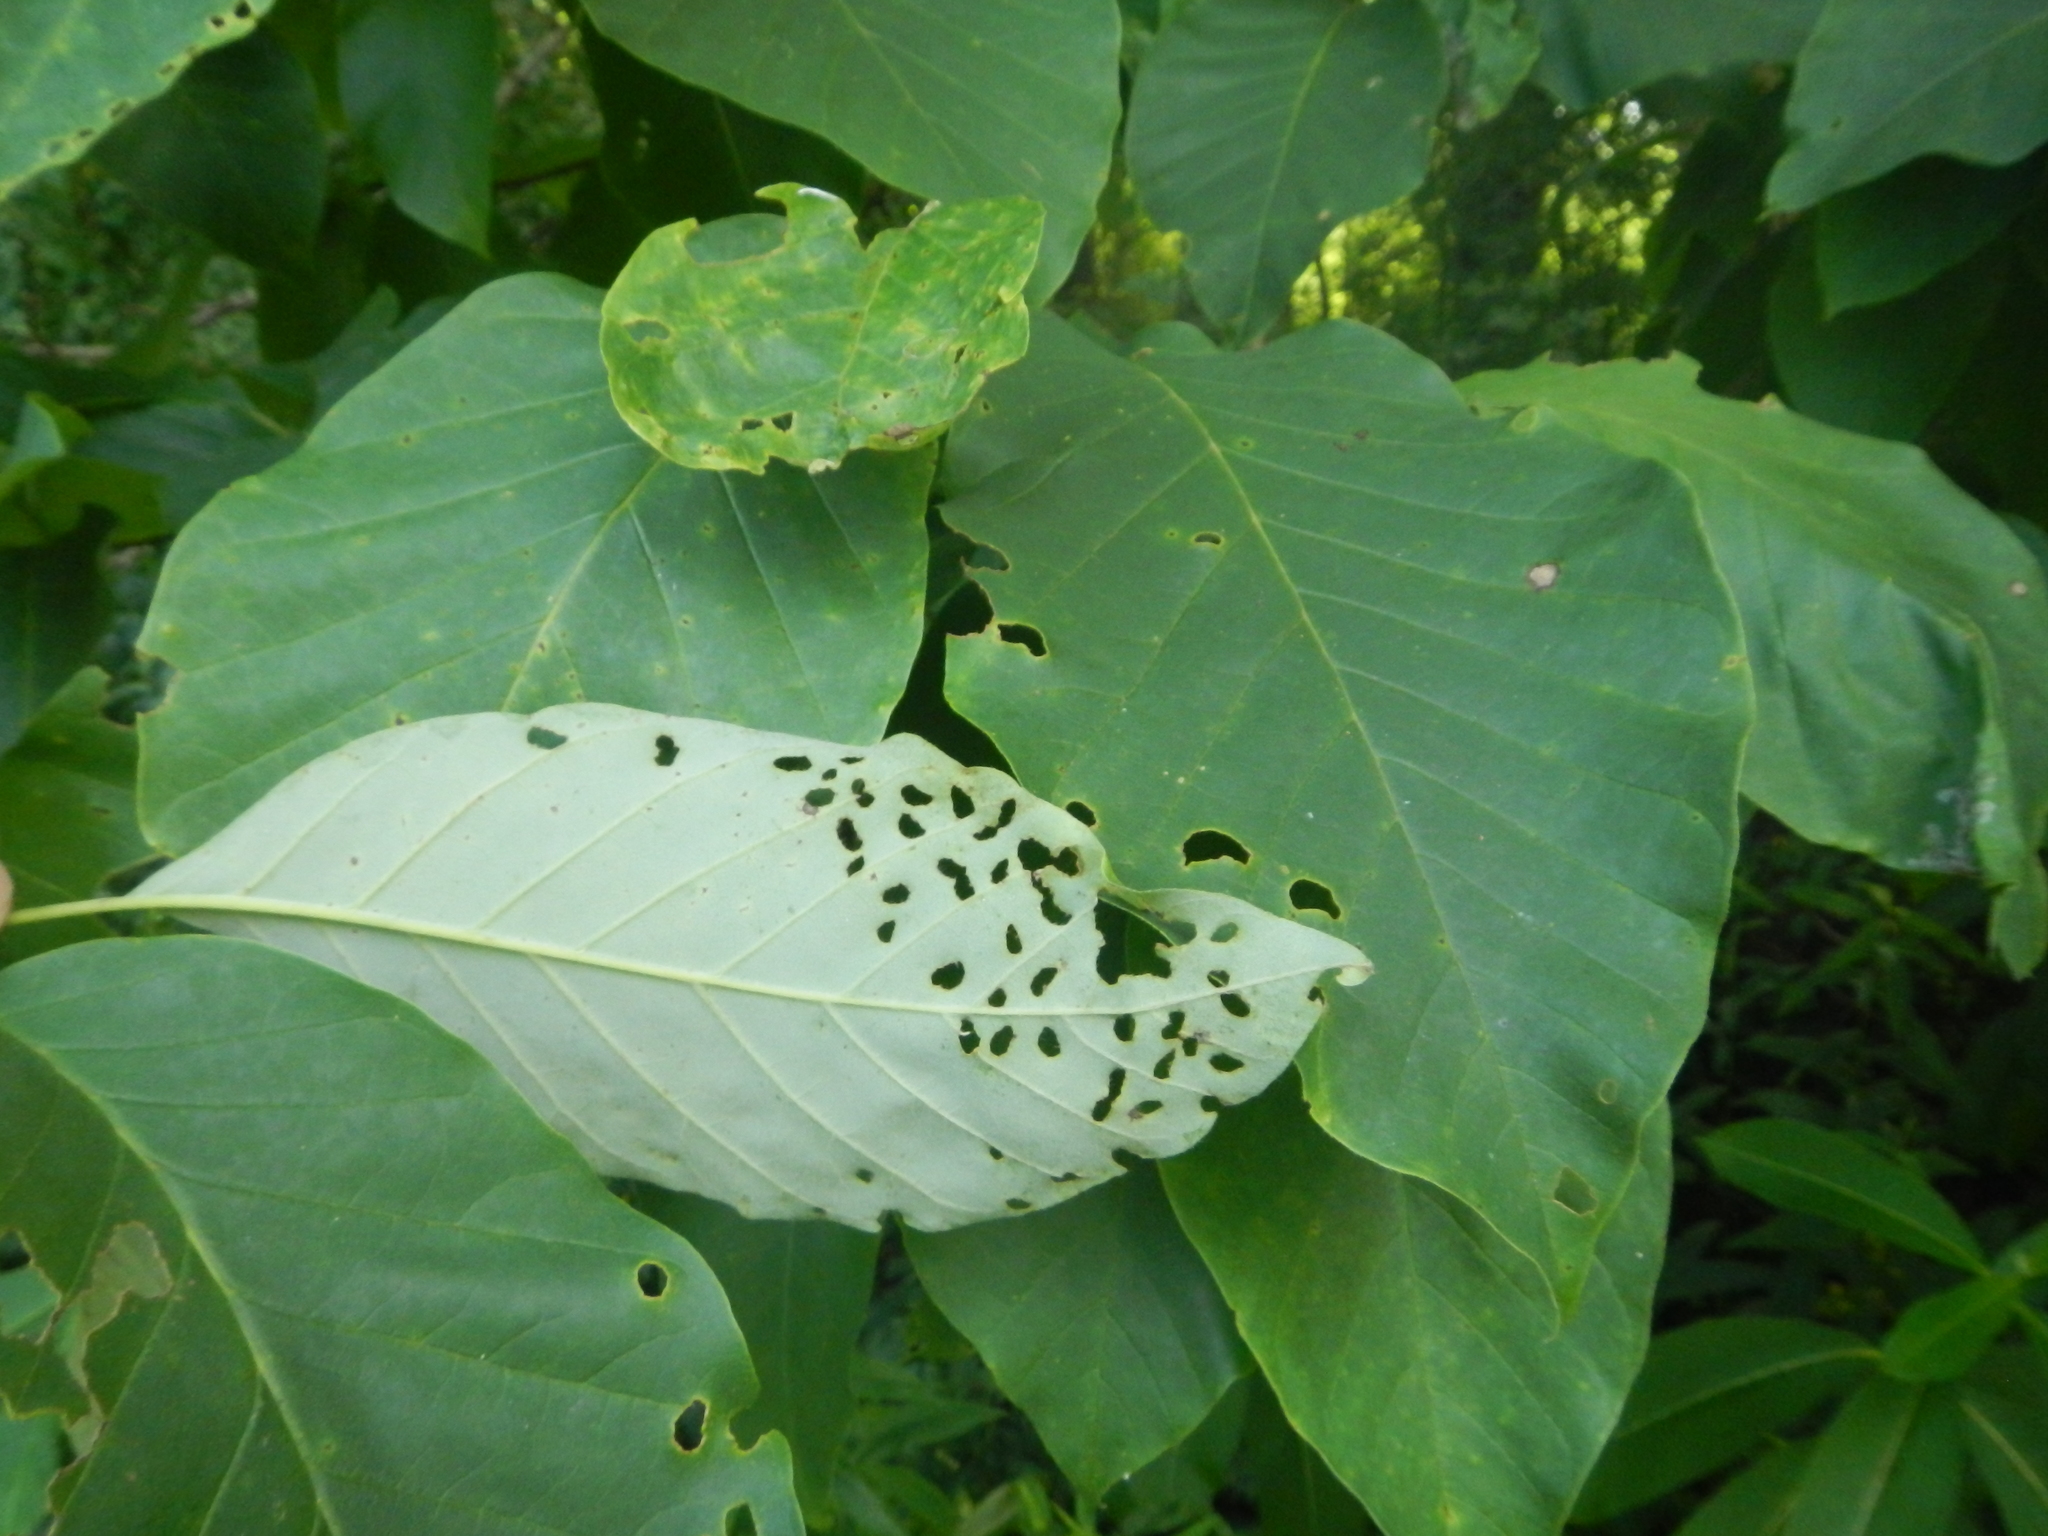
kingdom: Plantae
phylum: Tracheophyta
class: Magnoliopsida
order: Magnoliales
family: Magnoliaceae
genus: Magnolia
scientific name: Magnolia acuminata
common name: Cucumber magnolia
